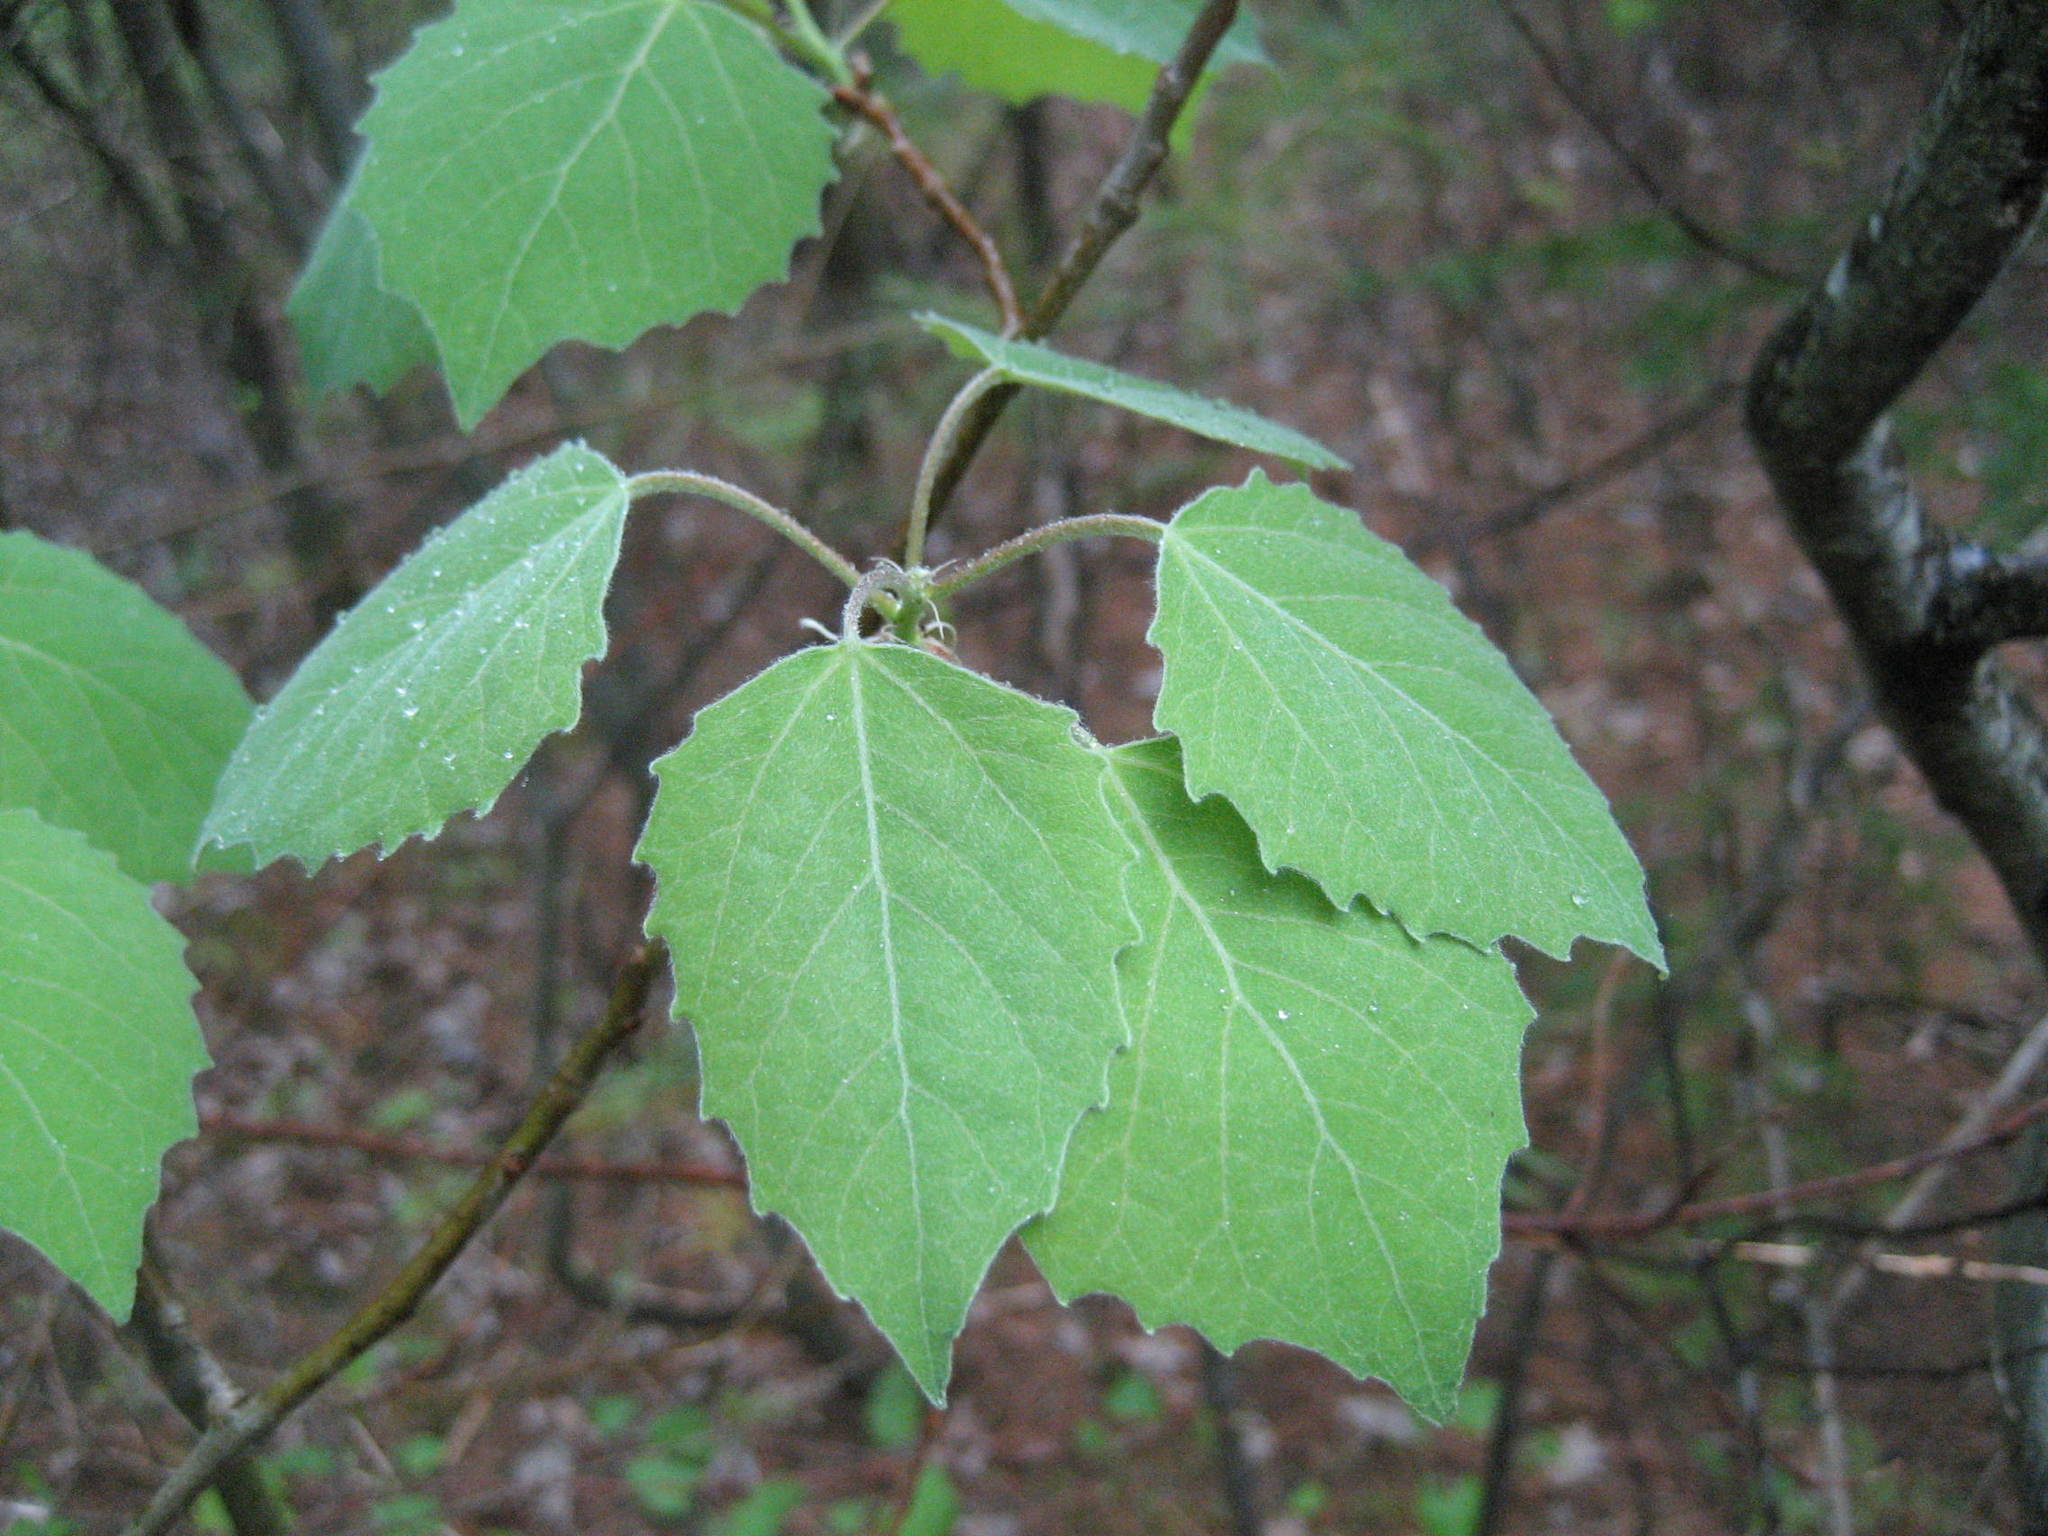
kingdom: Plantae
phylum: Tracheophyta
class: Magnoliopsida
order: Malpighiales
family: Salicaceae
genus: Populus
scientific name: Populus grandidentata
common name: Bigtooth aspen
